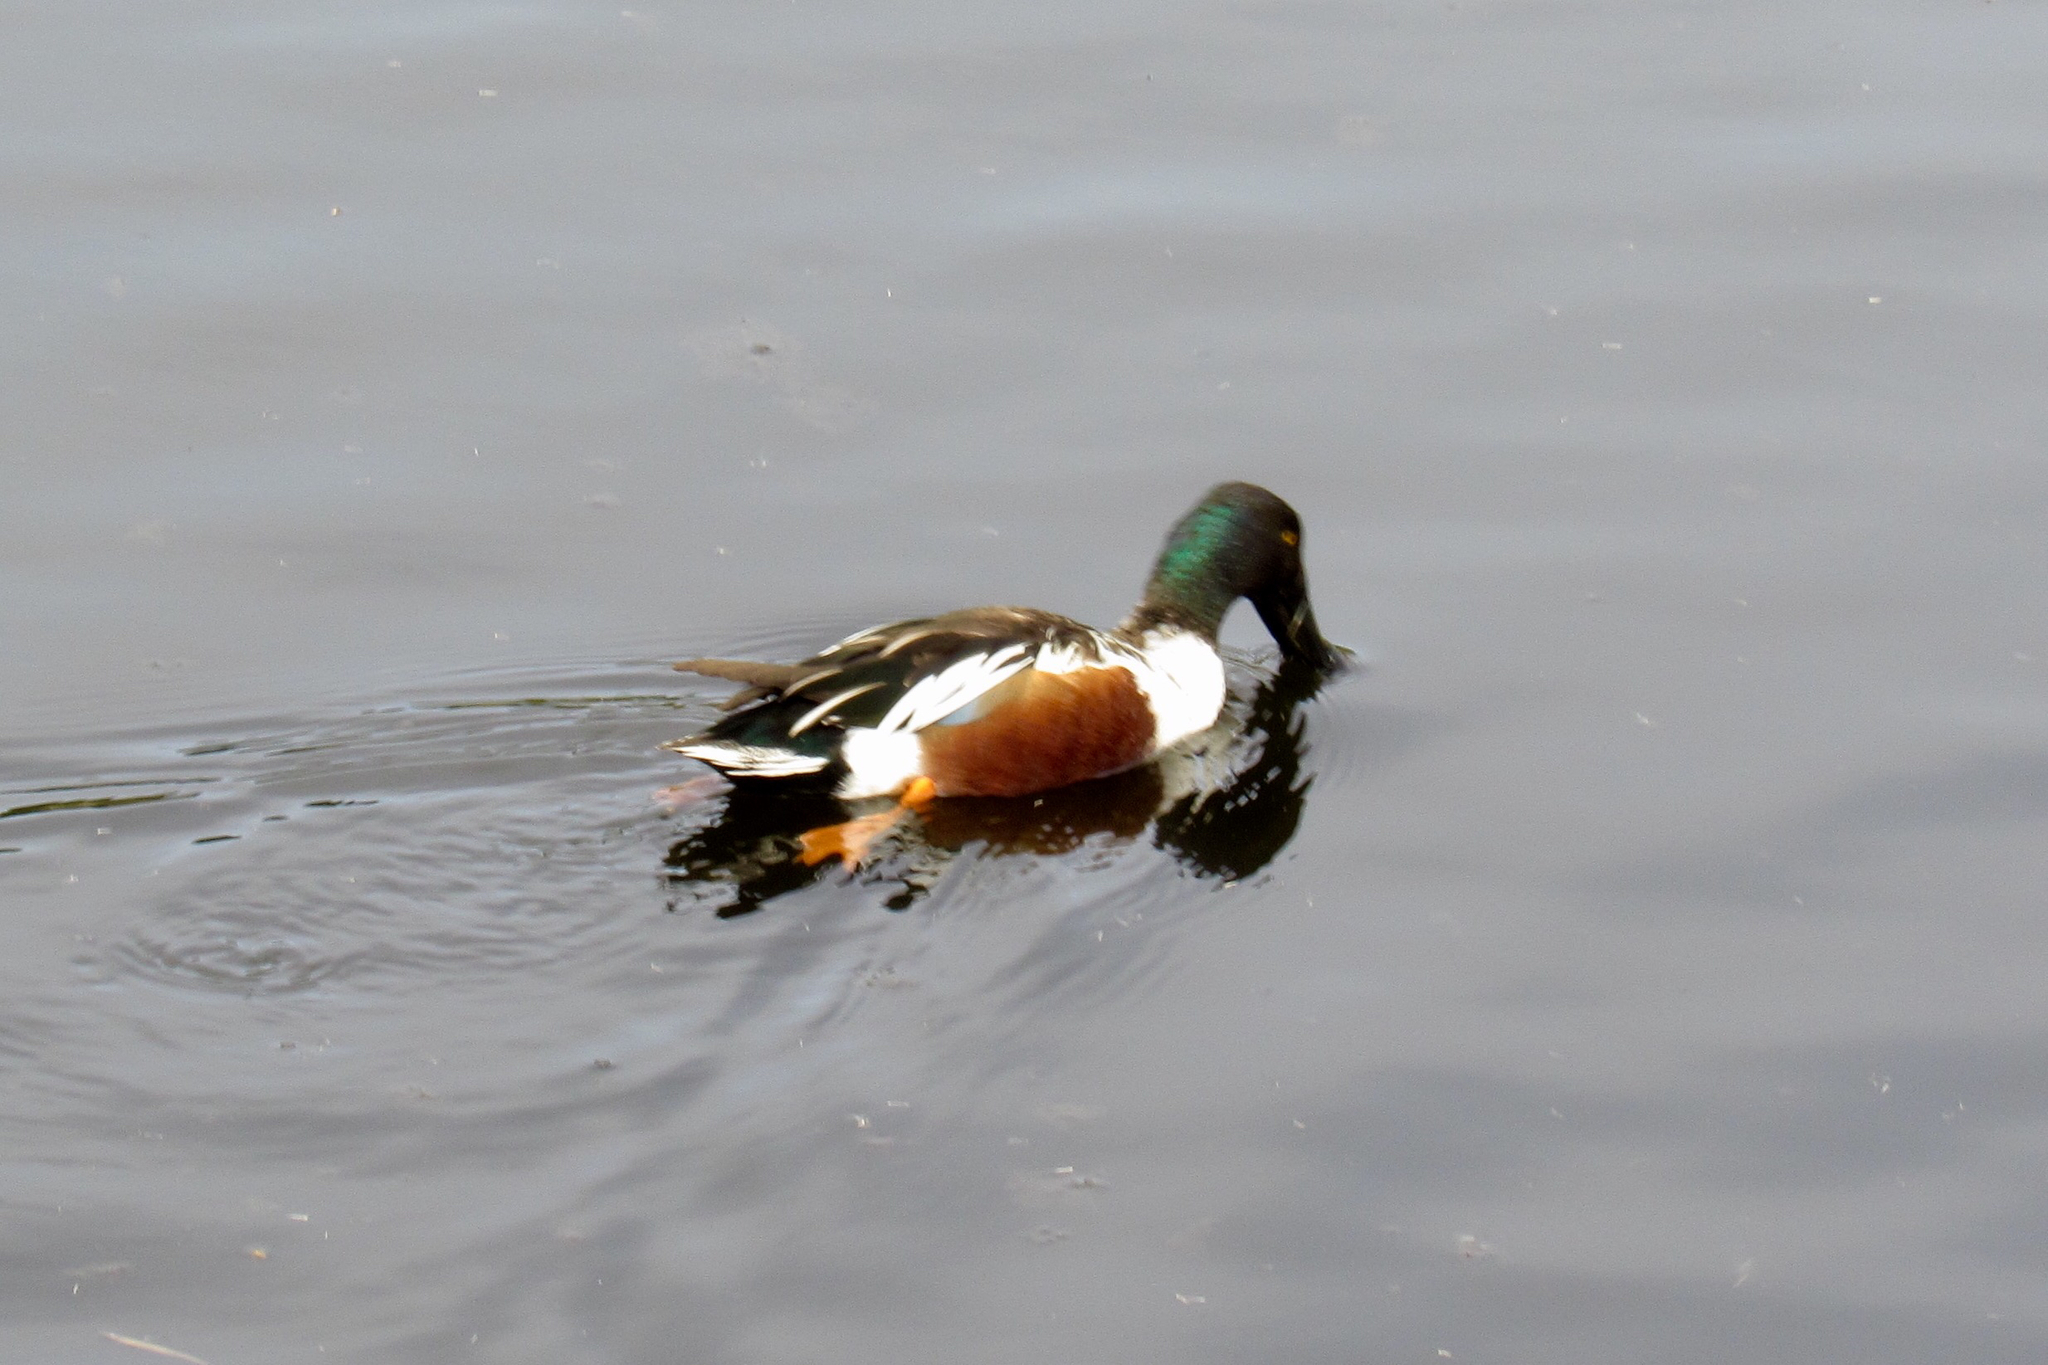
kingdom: Animalia
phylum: Chordata
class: Aves
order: Anseriformes
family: Anatidae
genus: Spatula
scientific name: Spatula clypeata
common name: Northern shoveler
